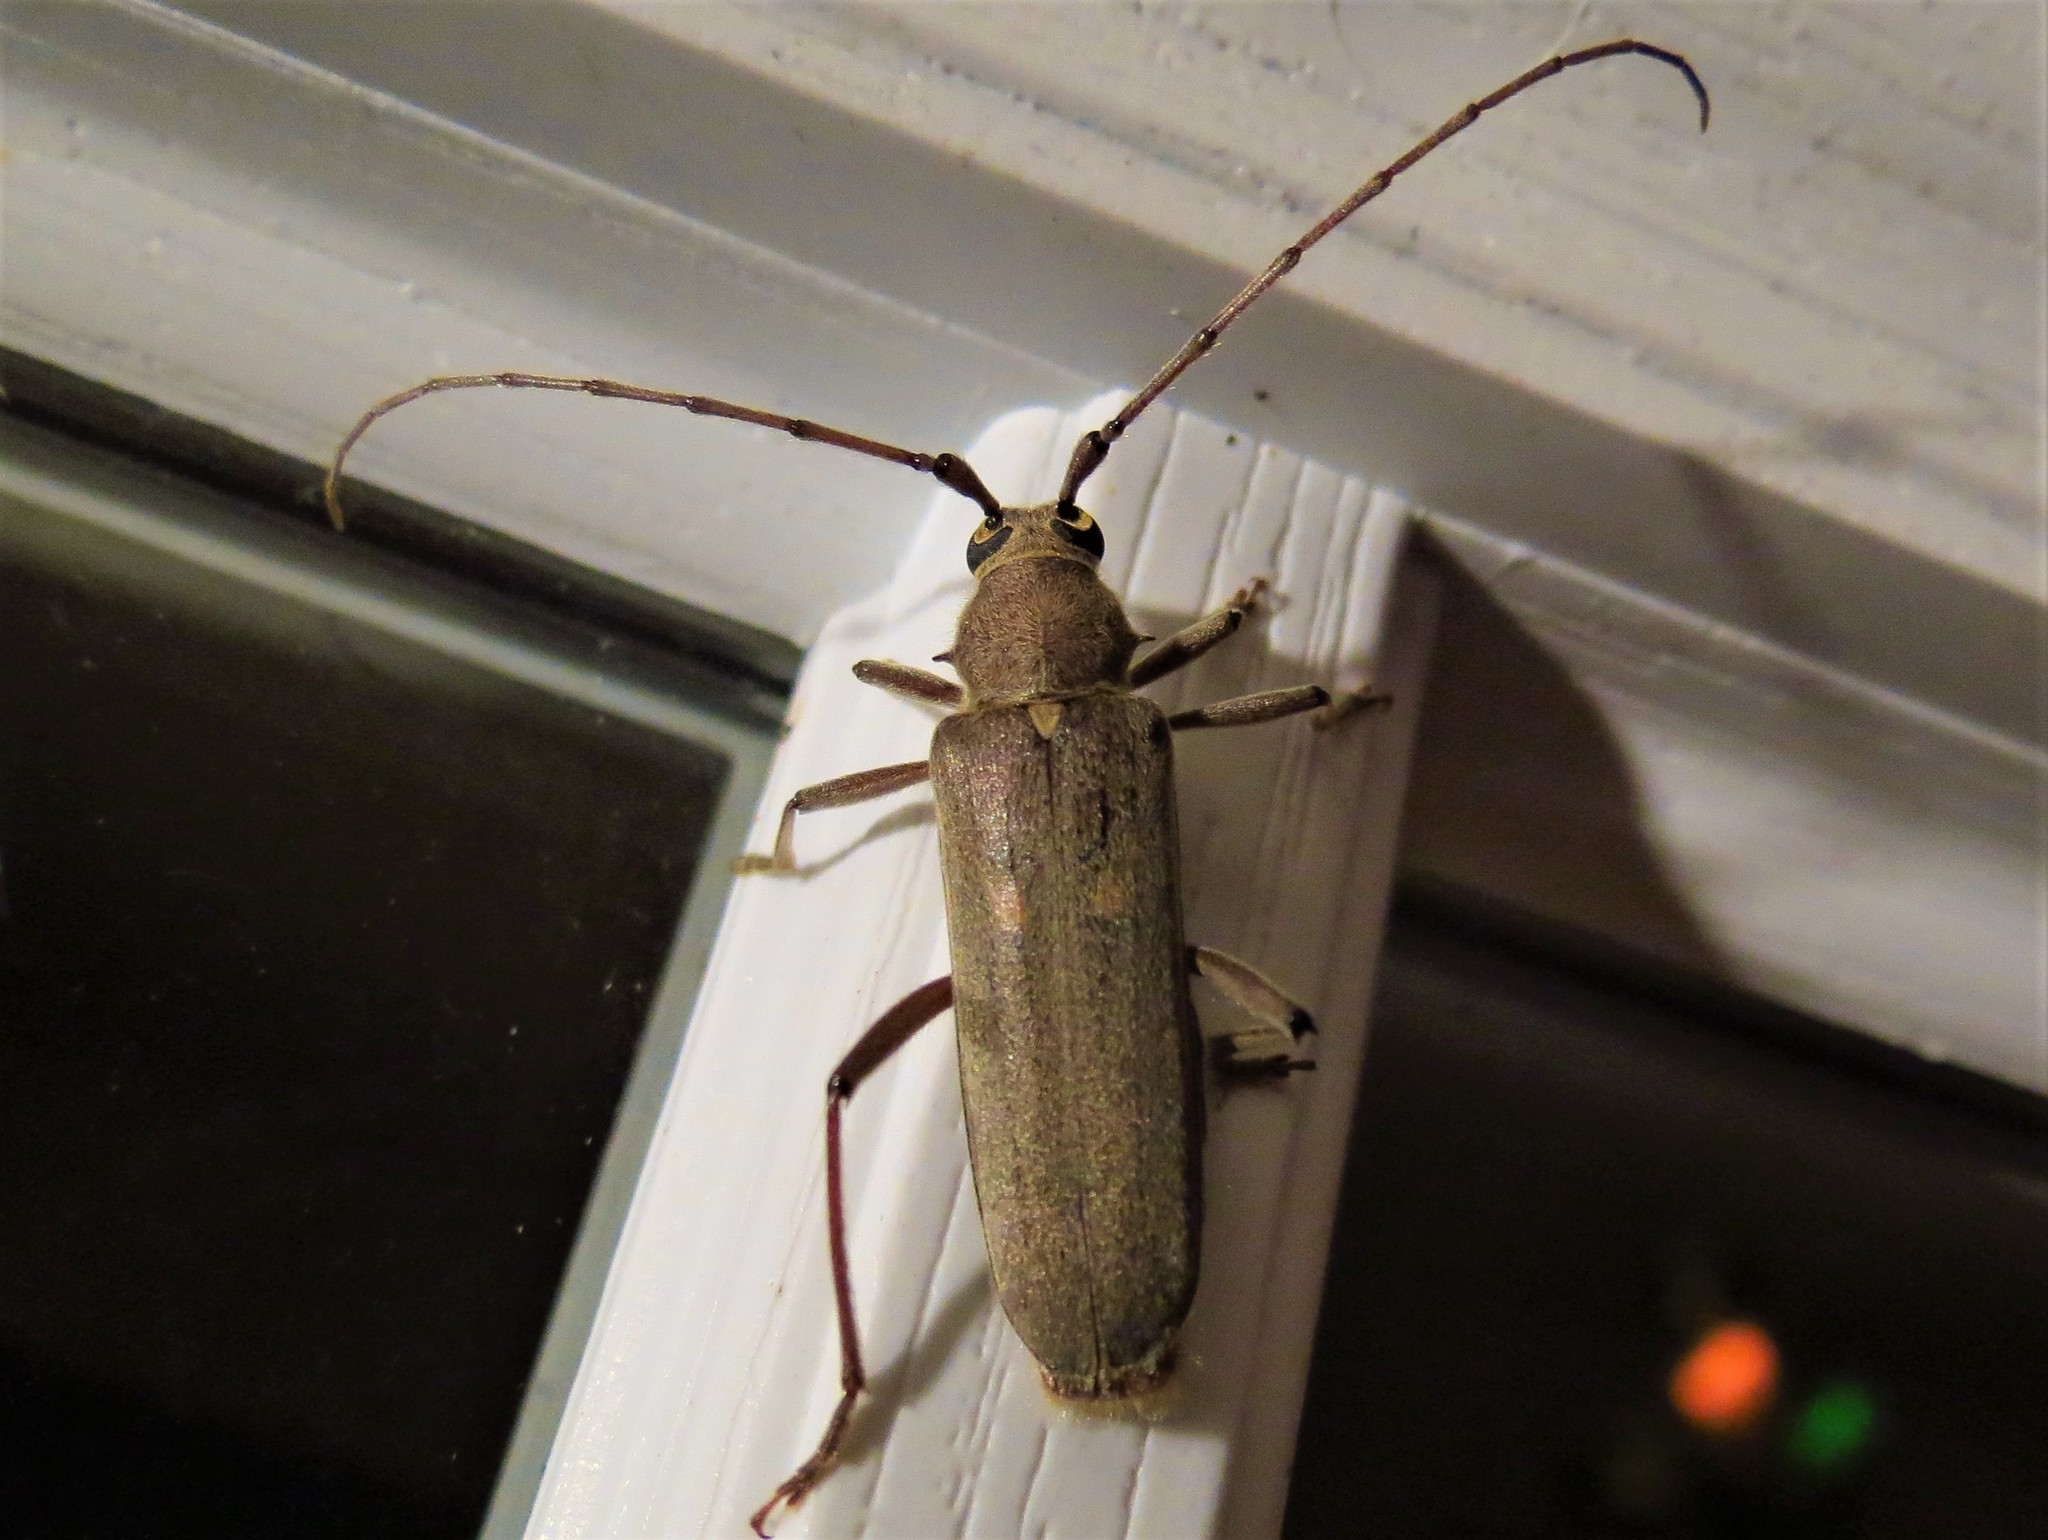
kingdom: Animalia
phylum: Arthropoda
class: Insecta
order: Coleoptera
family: Cerambycidae
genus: Knulliana
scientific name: Knulliana cincta
